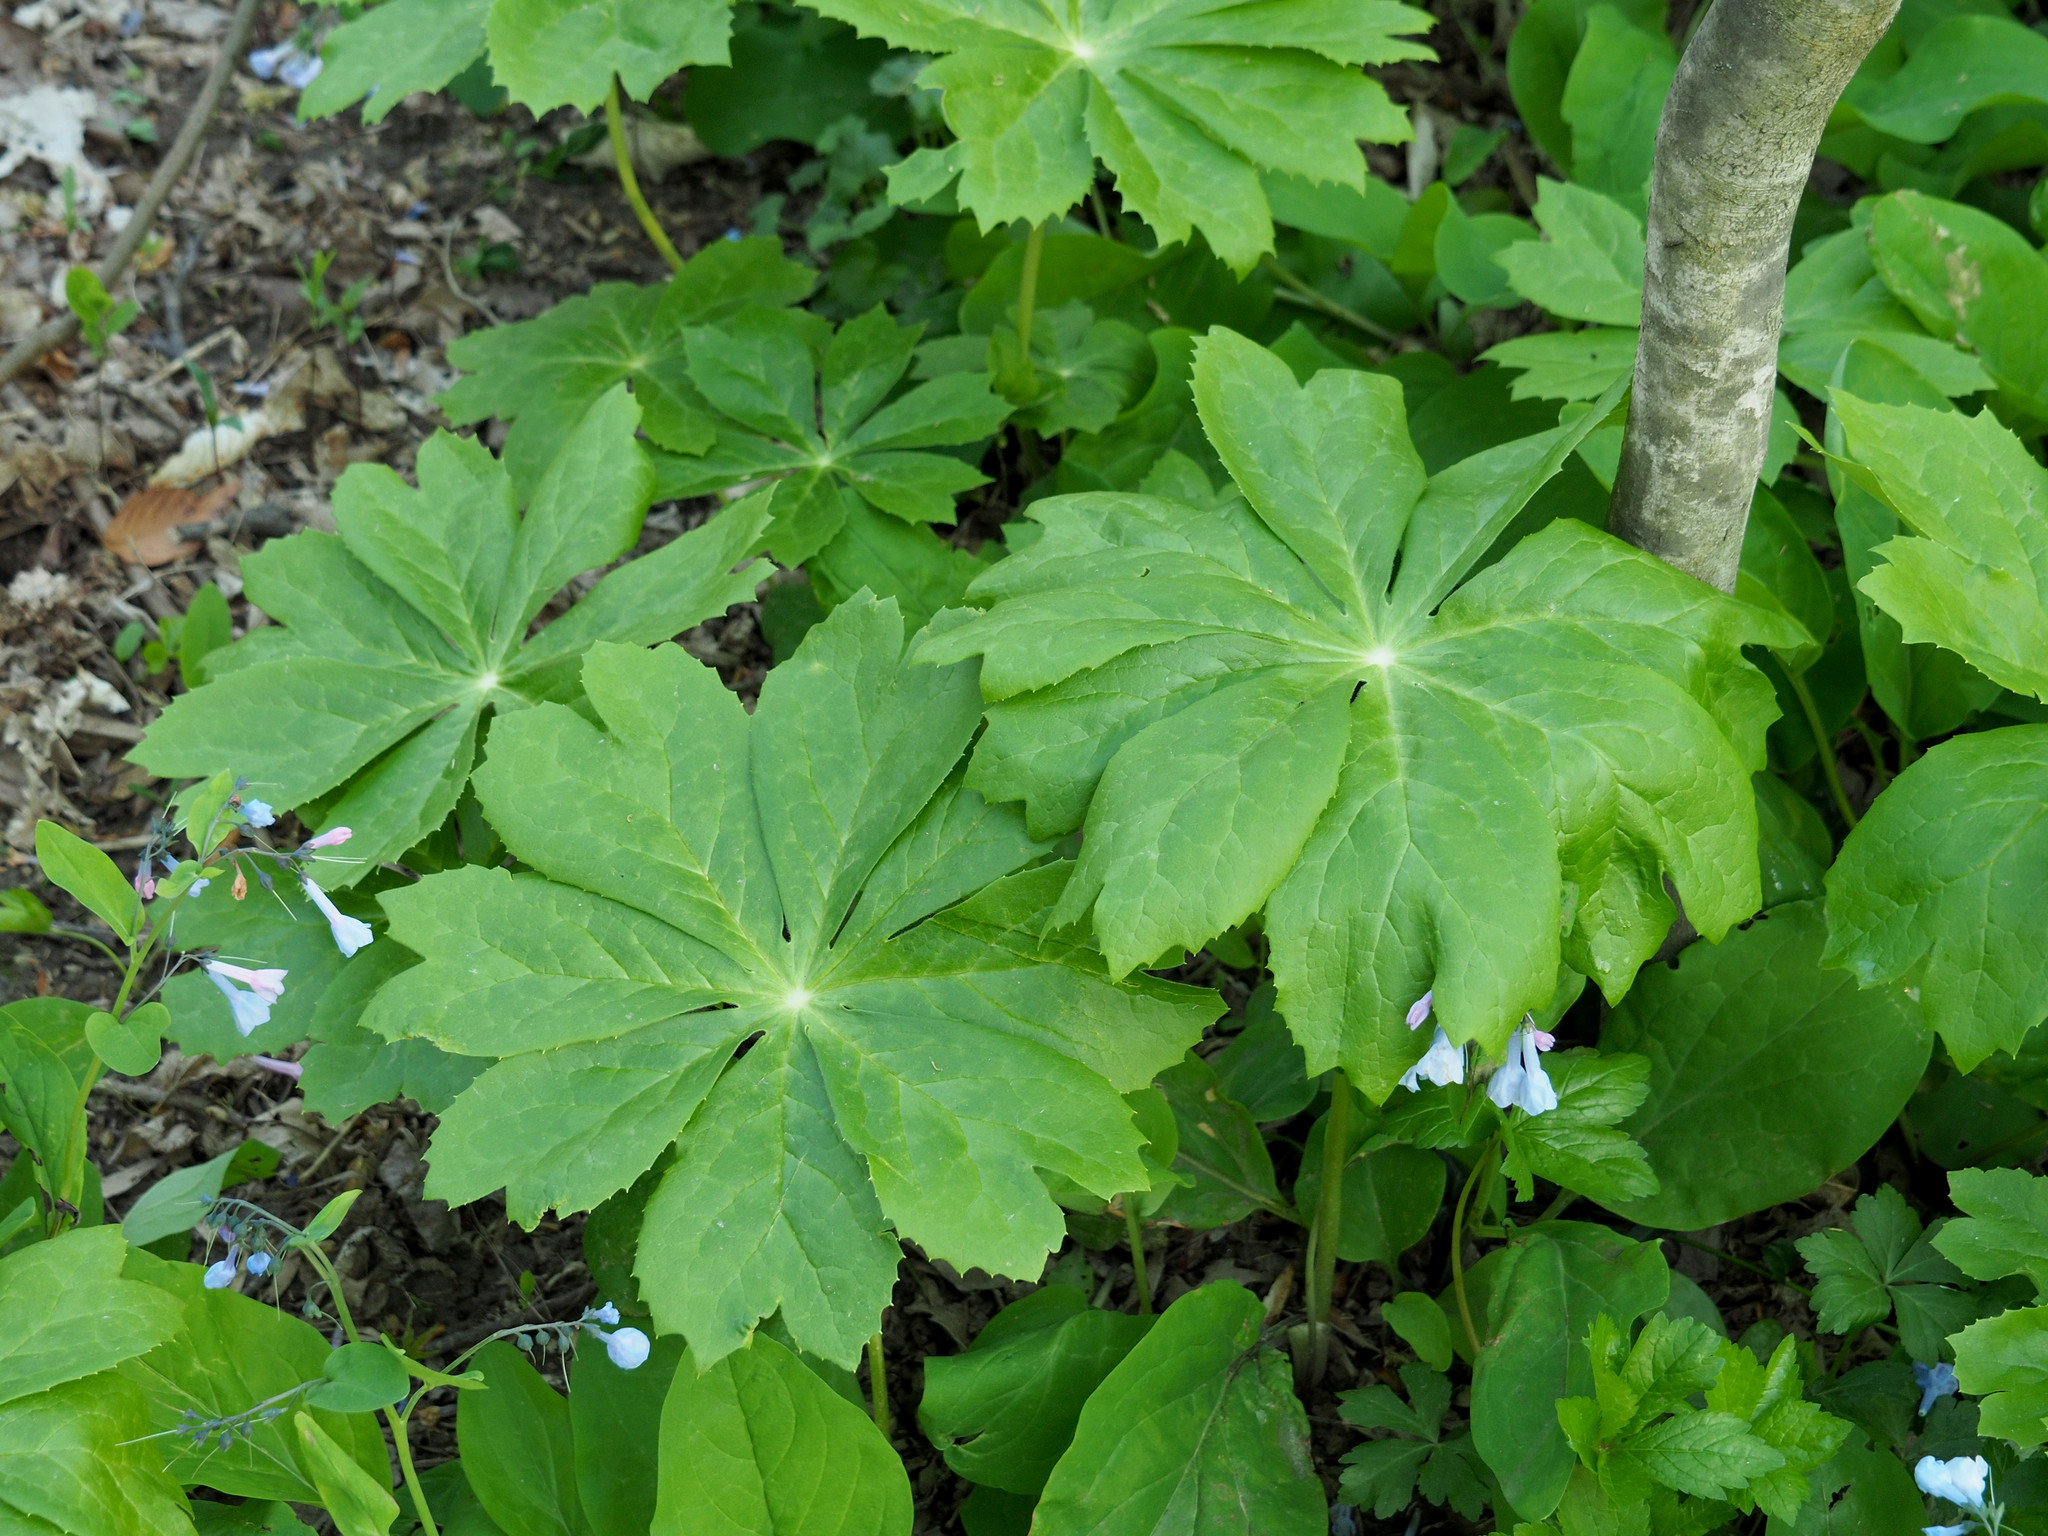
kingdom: Plantae
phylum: Tracheophyta
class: Magnoliopsida
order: Ranunculales
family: Berberidaceae
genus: Podophyllum
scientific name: Podophyllum peltatum
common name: Wild mandrake
